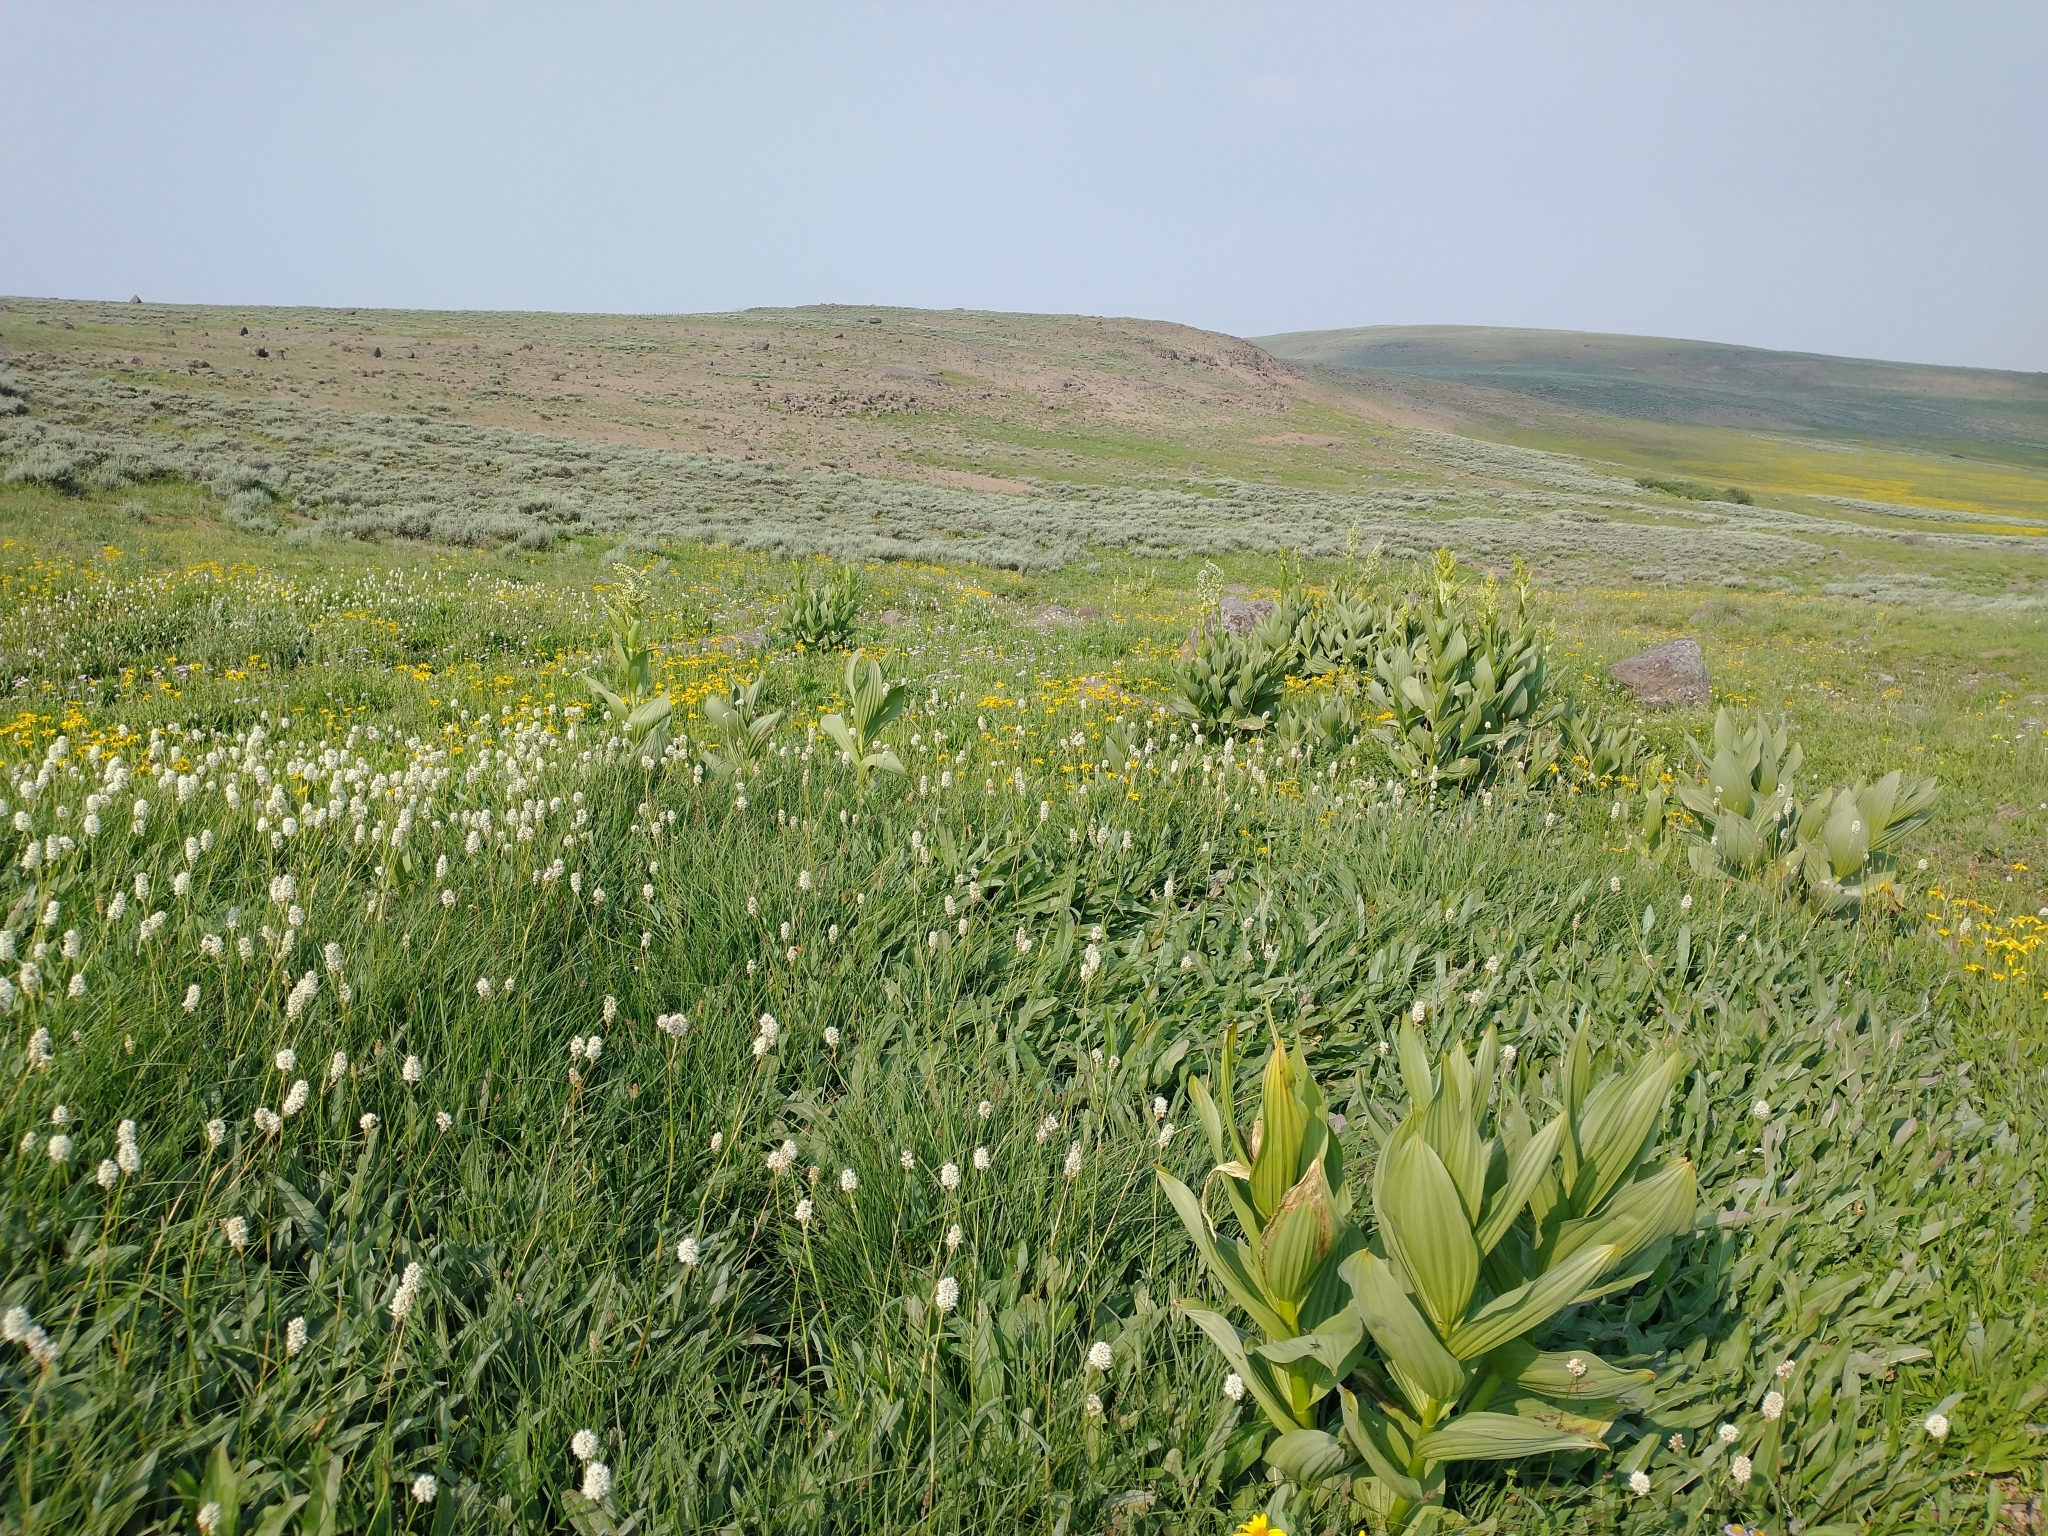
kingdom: Plantae
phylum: Tracheophyta
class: Liliopsida
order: Liliales
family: Melanthiaceae
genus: Veratrum
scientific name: Veratrum californicum
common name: California veratrum
